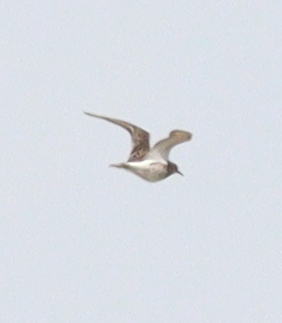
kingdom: Animalia
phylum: Chordata
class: Aves
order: Charadriiformes
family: Scolopacidae
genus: Calidris
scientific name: Calidris pugnax
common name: Ruff
